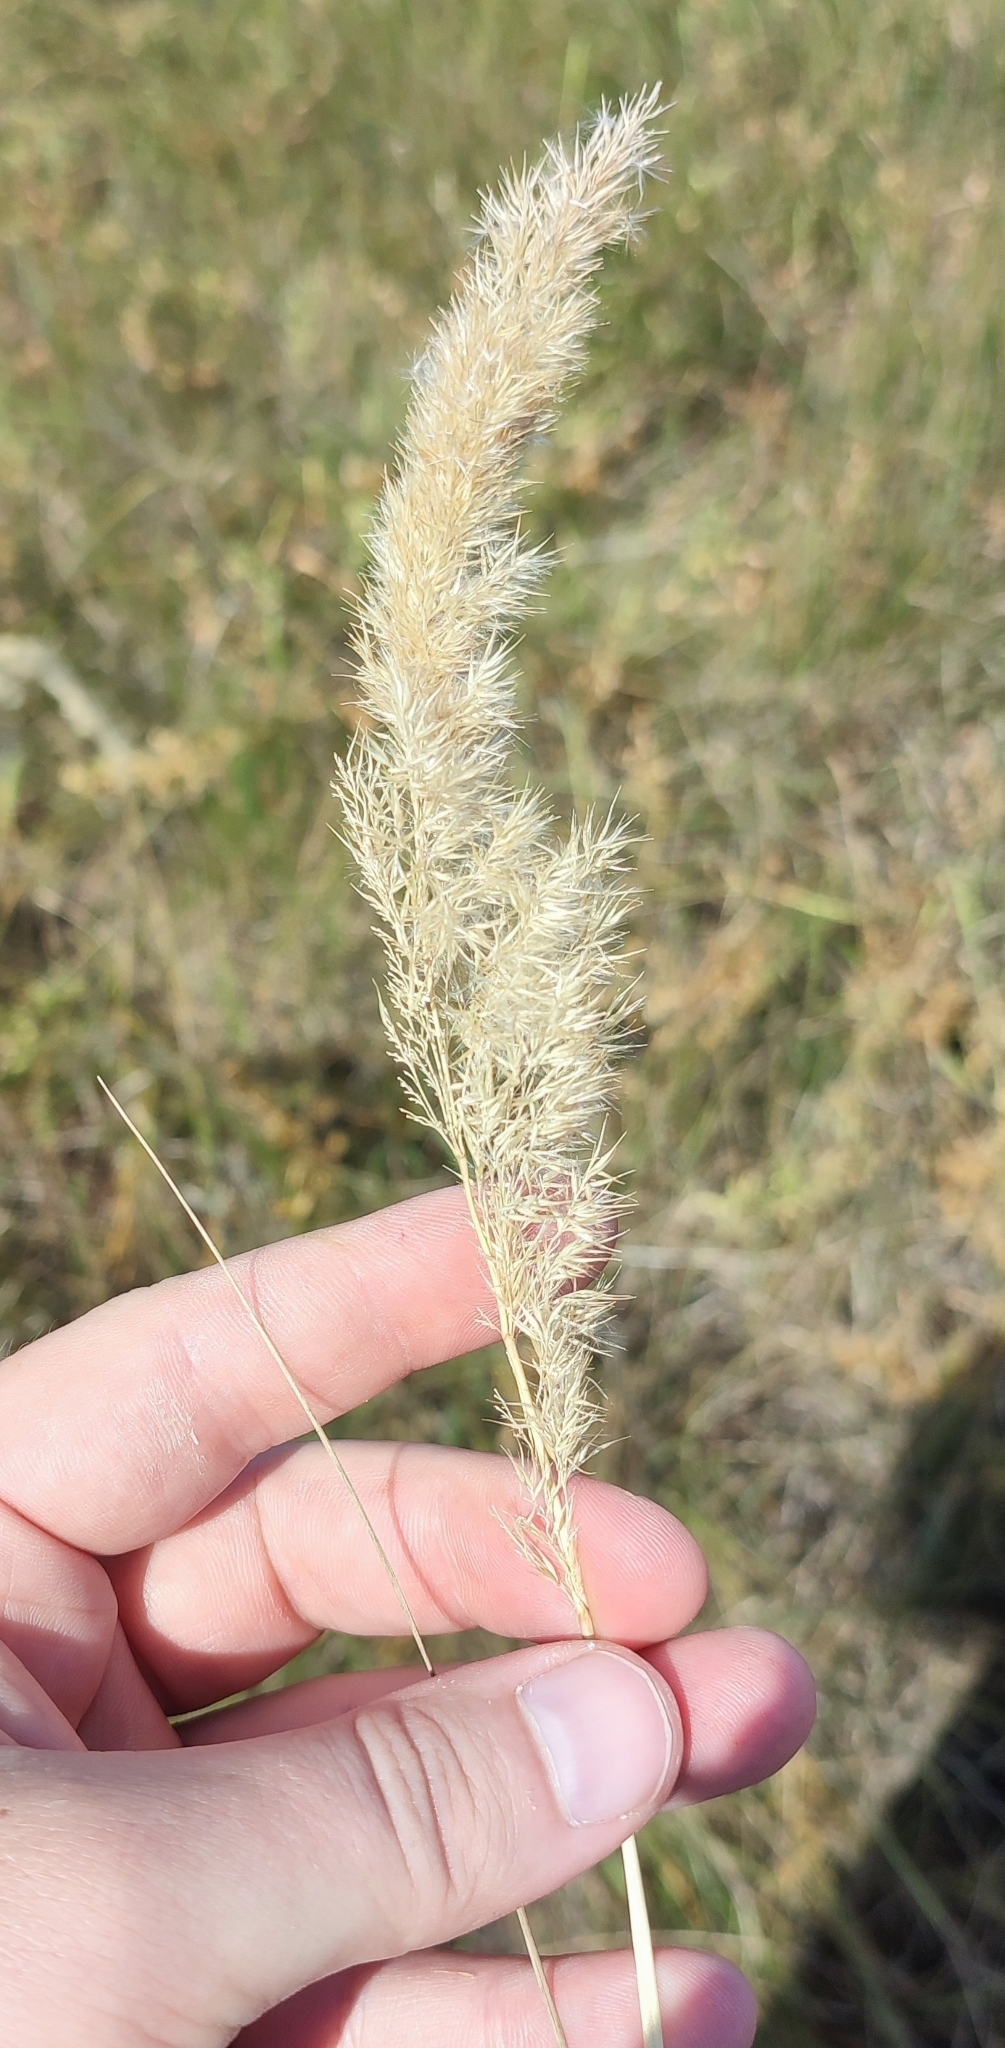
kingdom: Plantae
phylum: Tracheophyta
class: Liliopsida
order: Poales
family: Poaceae
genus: Calamagrostis
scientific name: Calamagrostis epigejos
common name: Wood small-reed
